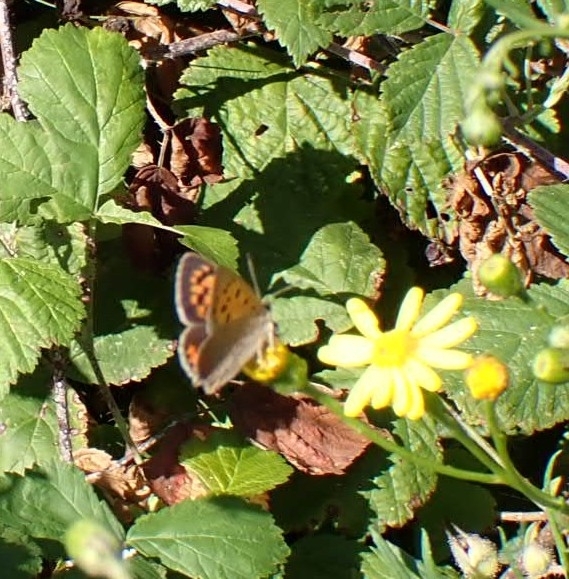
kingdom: Animalia
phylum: Arthropoda
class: Insecta
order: Lepidoptera
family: Lycaenidae
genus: Lycaena
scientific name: Lycaena phlaeas
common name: Small copper
